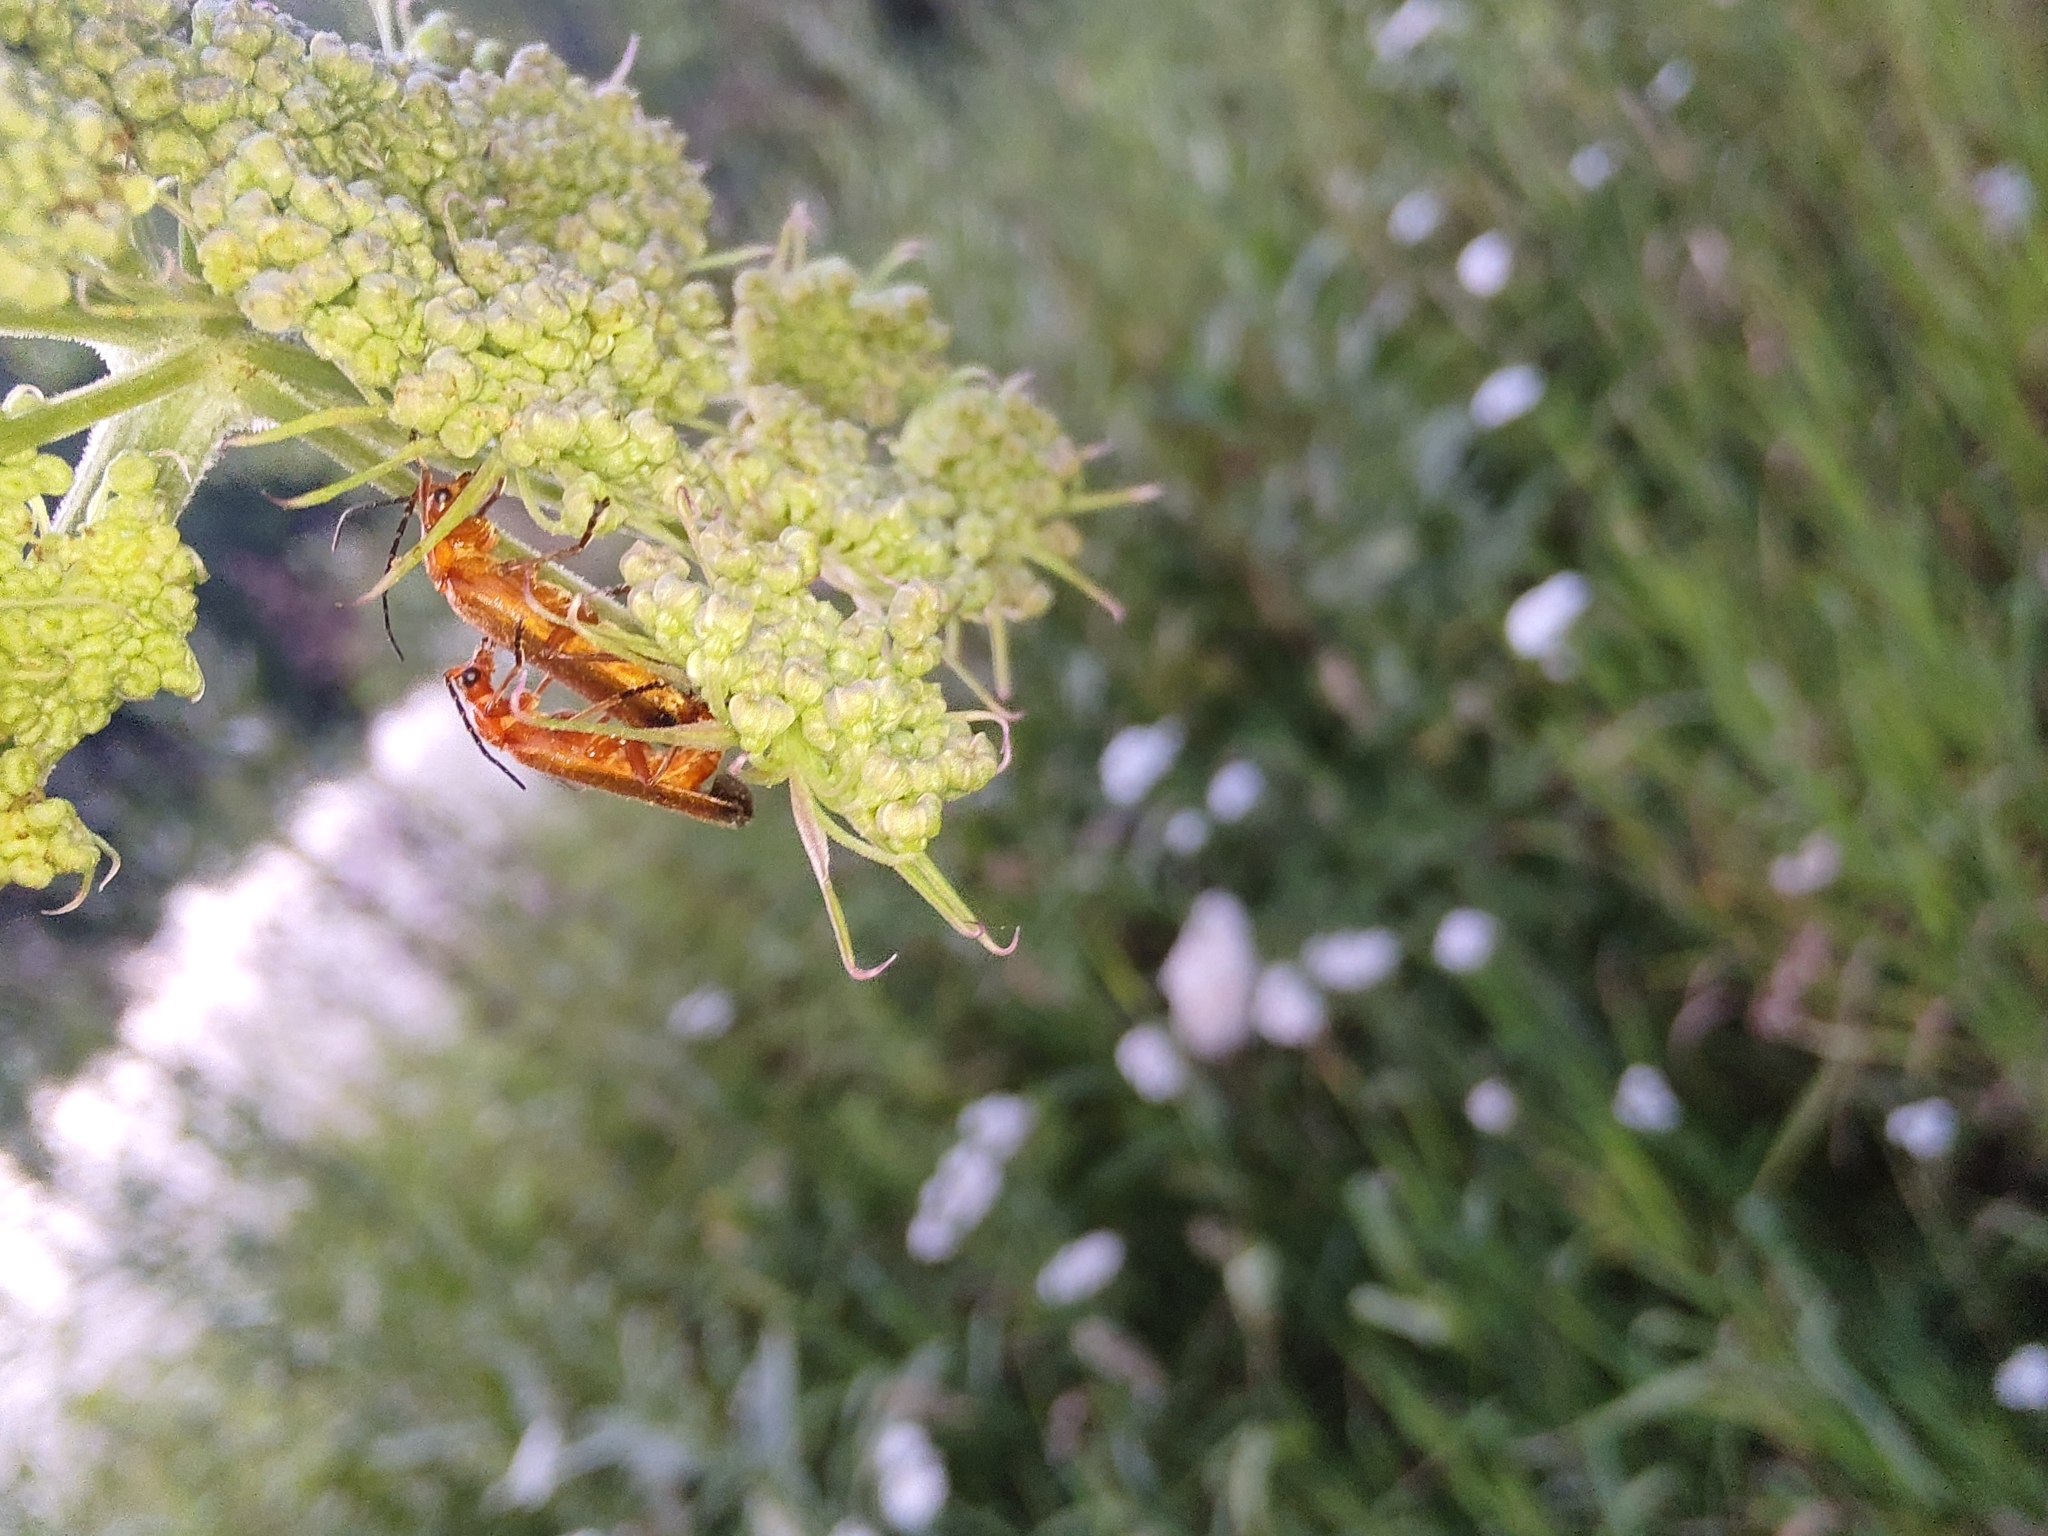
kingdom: Animalia
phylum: Arthropoda
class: Insecta
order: Coleoptera
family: Cantharidae
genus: Rhagonycha
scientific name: Rhagonycha fulva
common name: Common red soldier beetle
